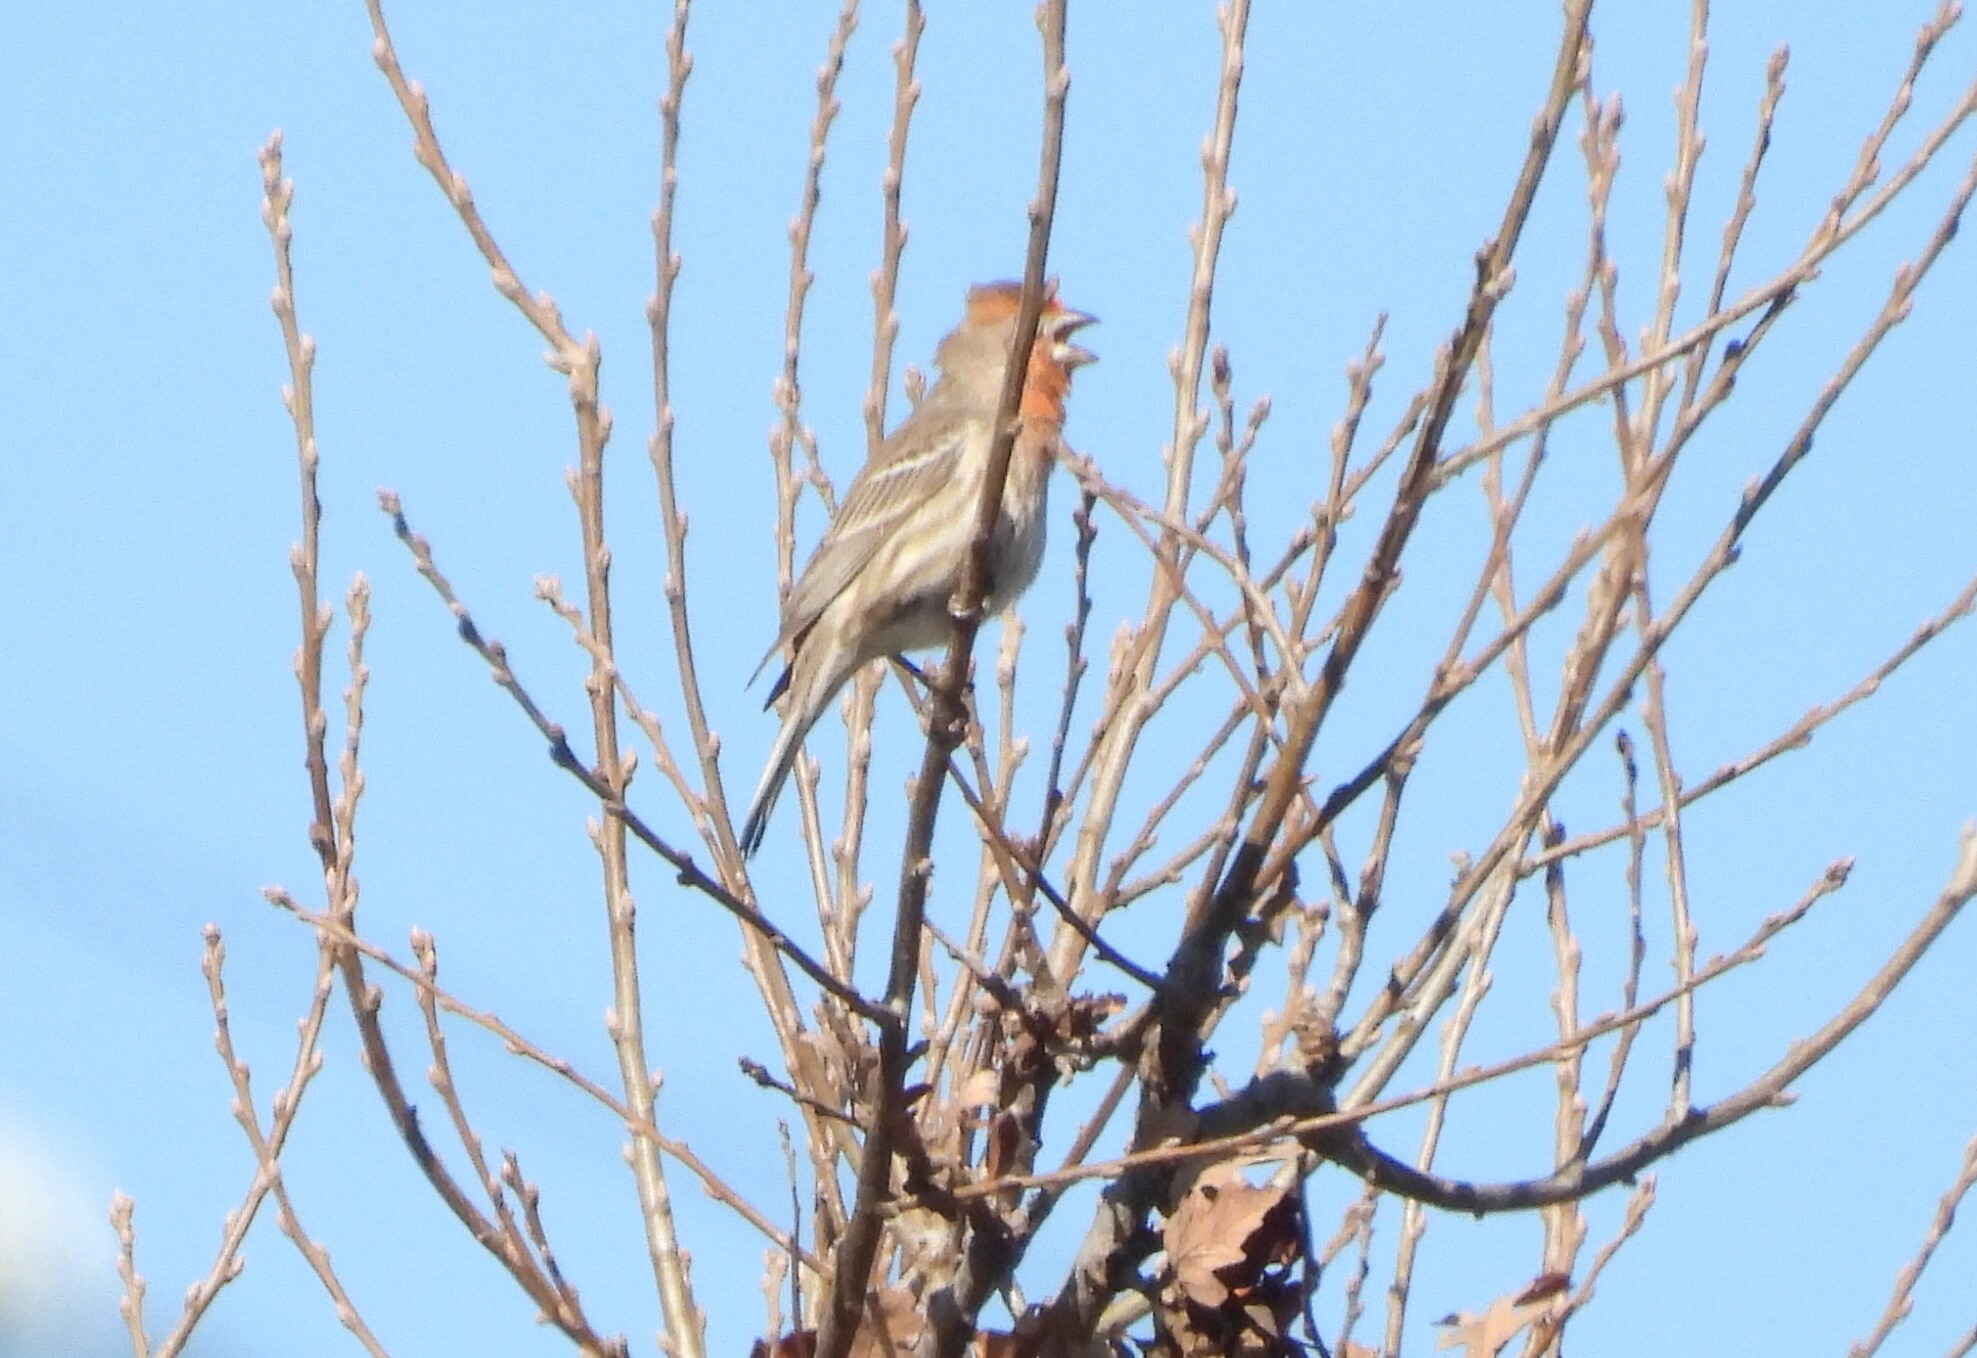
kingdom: Animalia
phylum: Chordata
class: Aves
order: Passeriformes
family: Fringillidae
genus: Haemorhous
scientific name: Haemorhous mexicanus
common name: House finch
